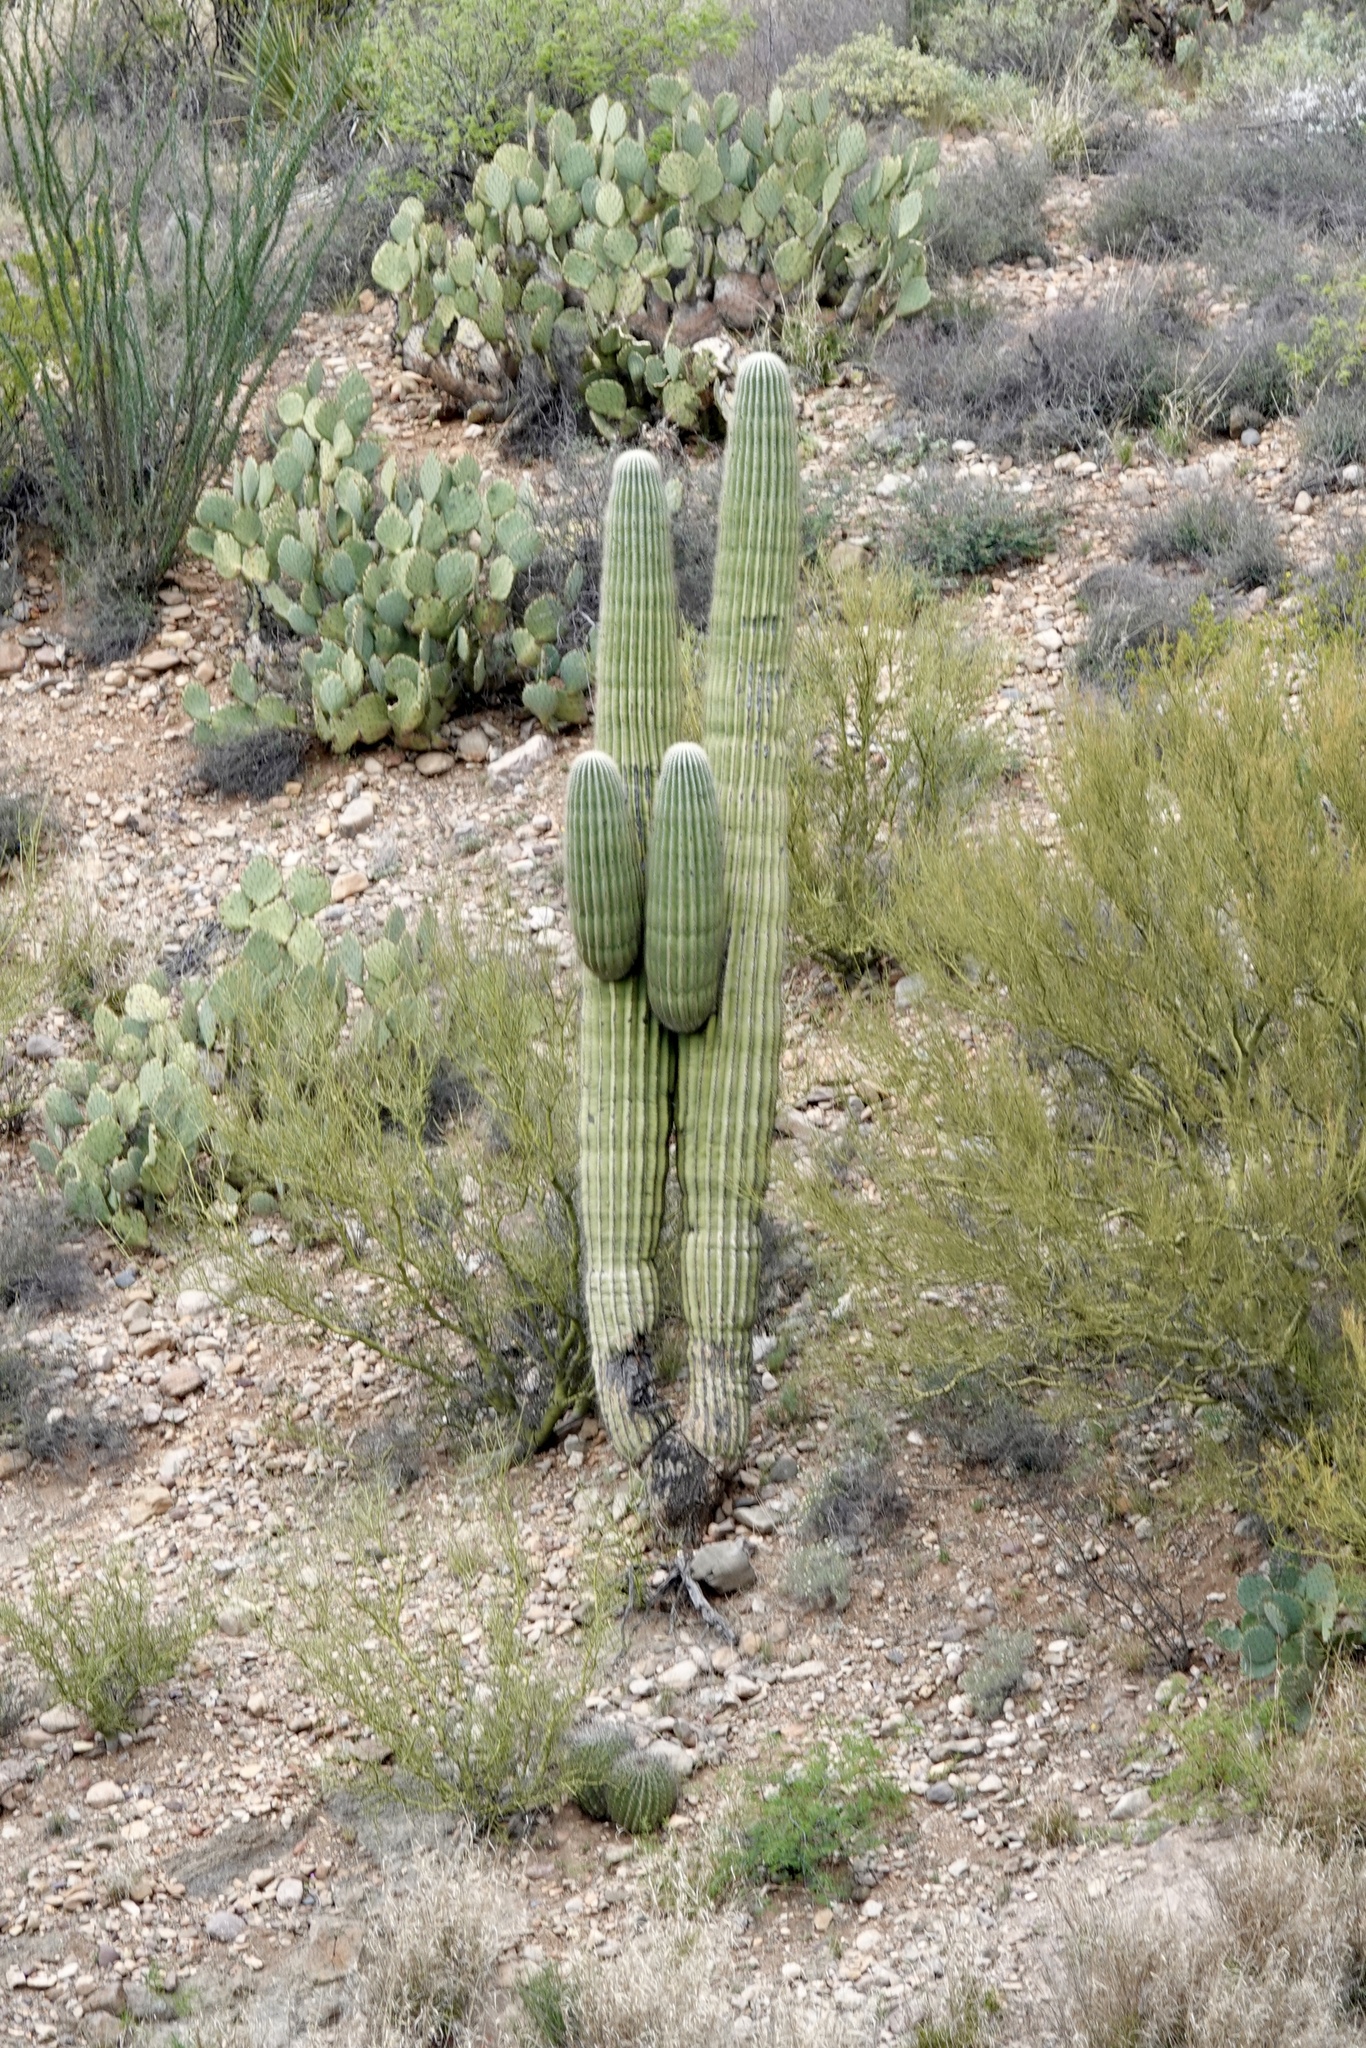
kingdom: Plantae
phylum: Tracheophyta
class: Magnoliopsida
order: Caryophyllales
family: Cactaceae
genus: Carnegiea
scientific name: Carnegiea gigantea
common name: Saguaro
